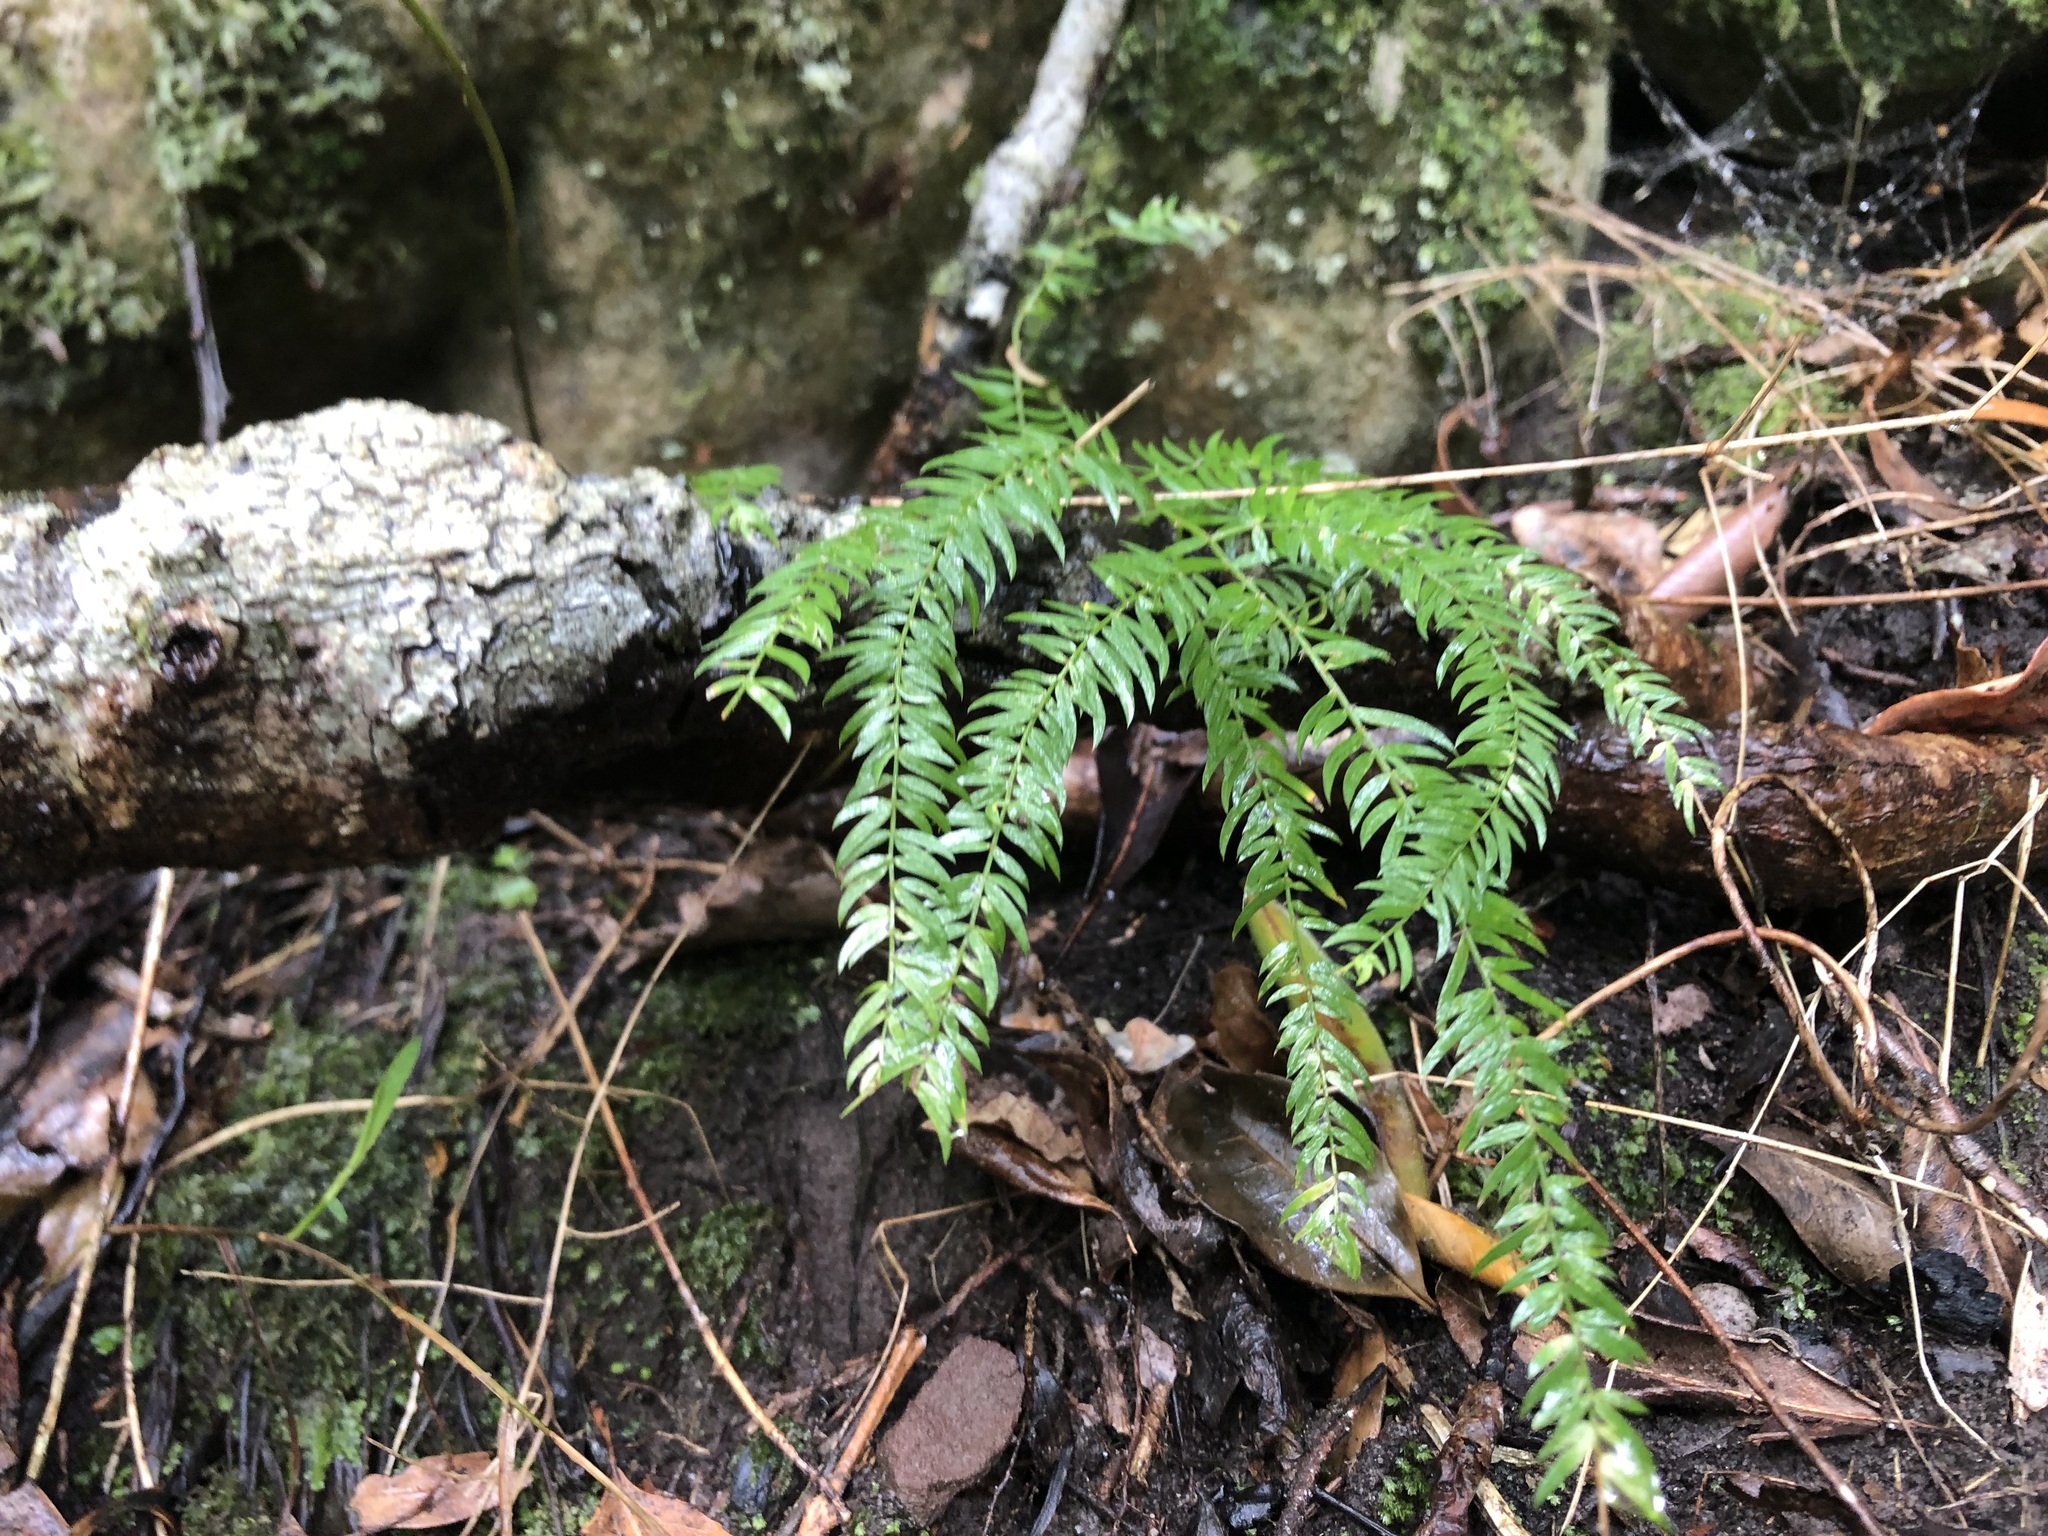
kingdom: Plantae
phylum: Tracheophyta
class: Liliopsida
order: Asparagales
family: Asparagaceae
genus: Asparagus
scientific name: Asparagus scandens
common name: Asparagus-fern
